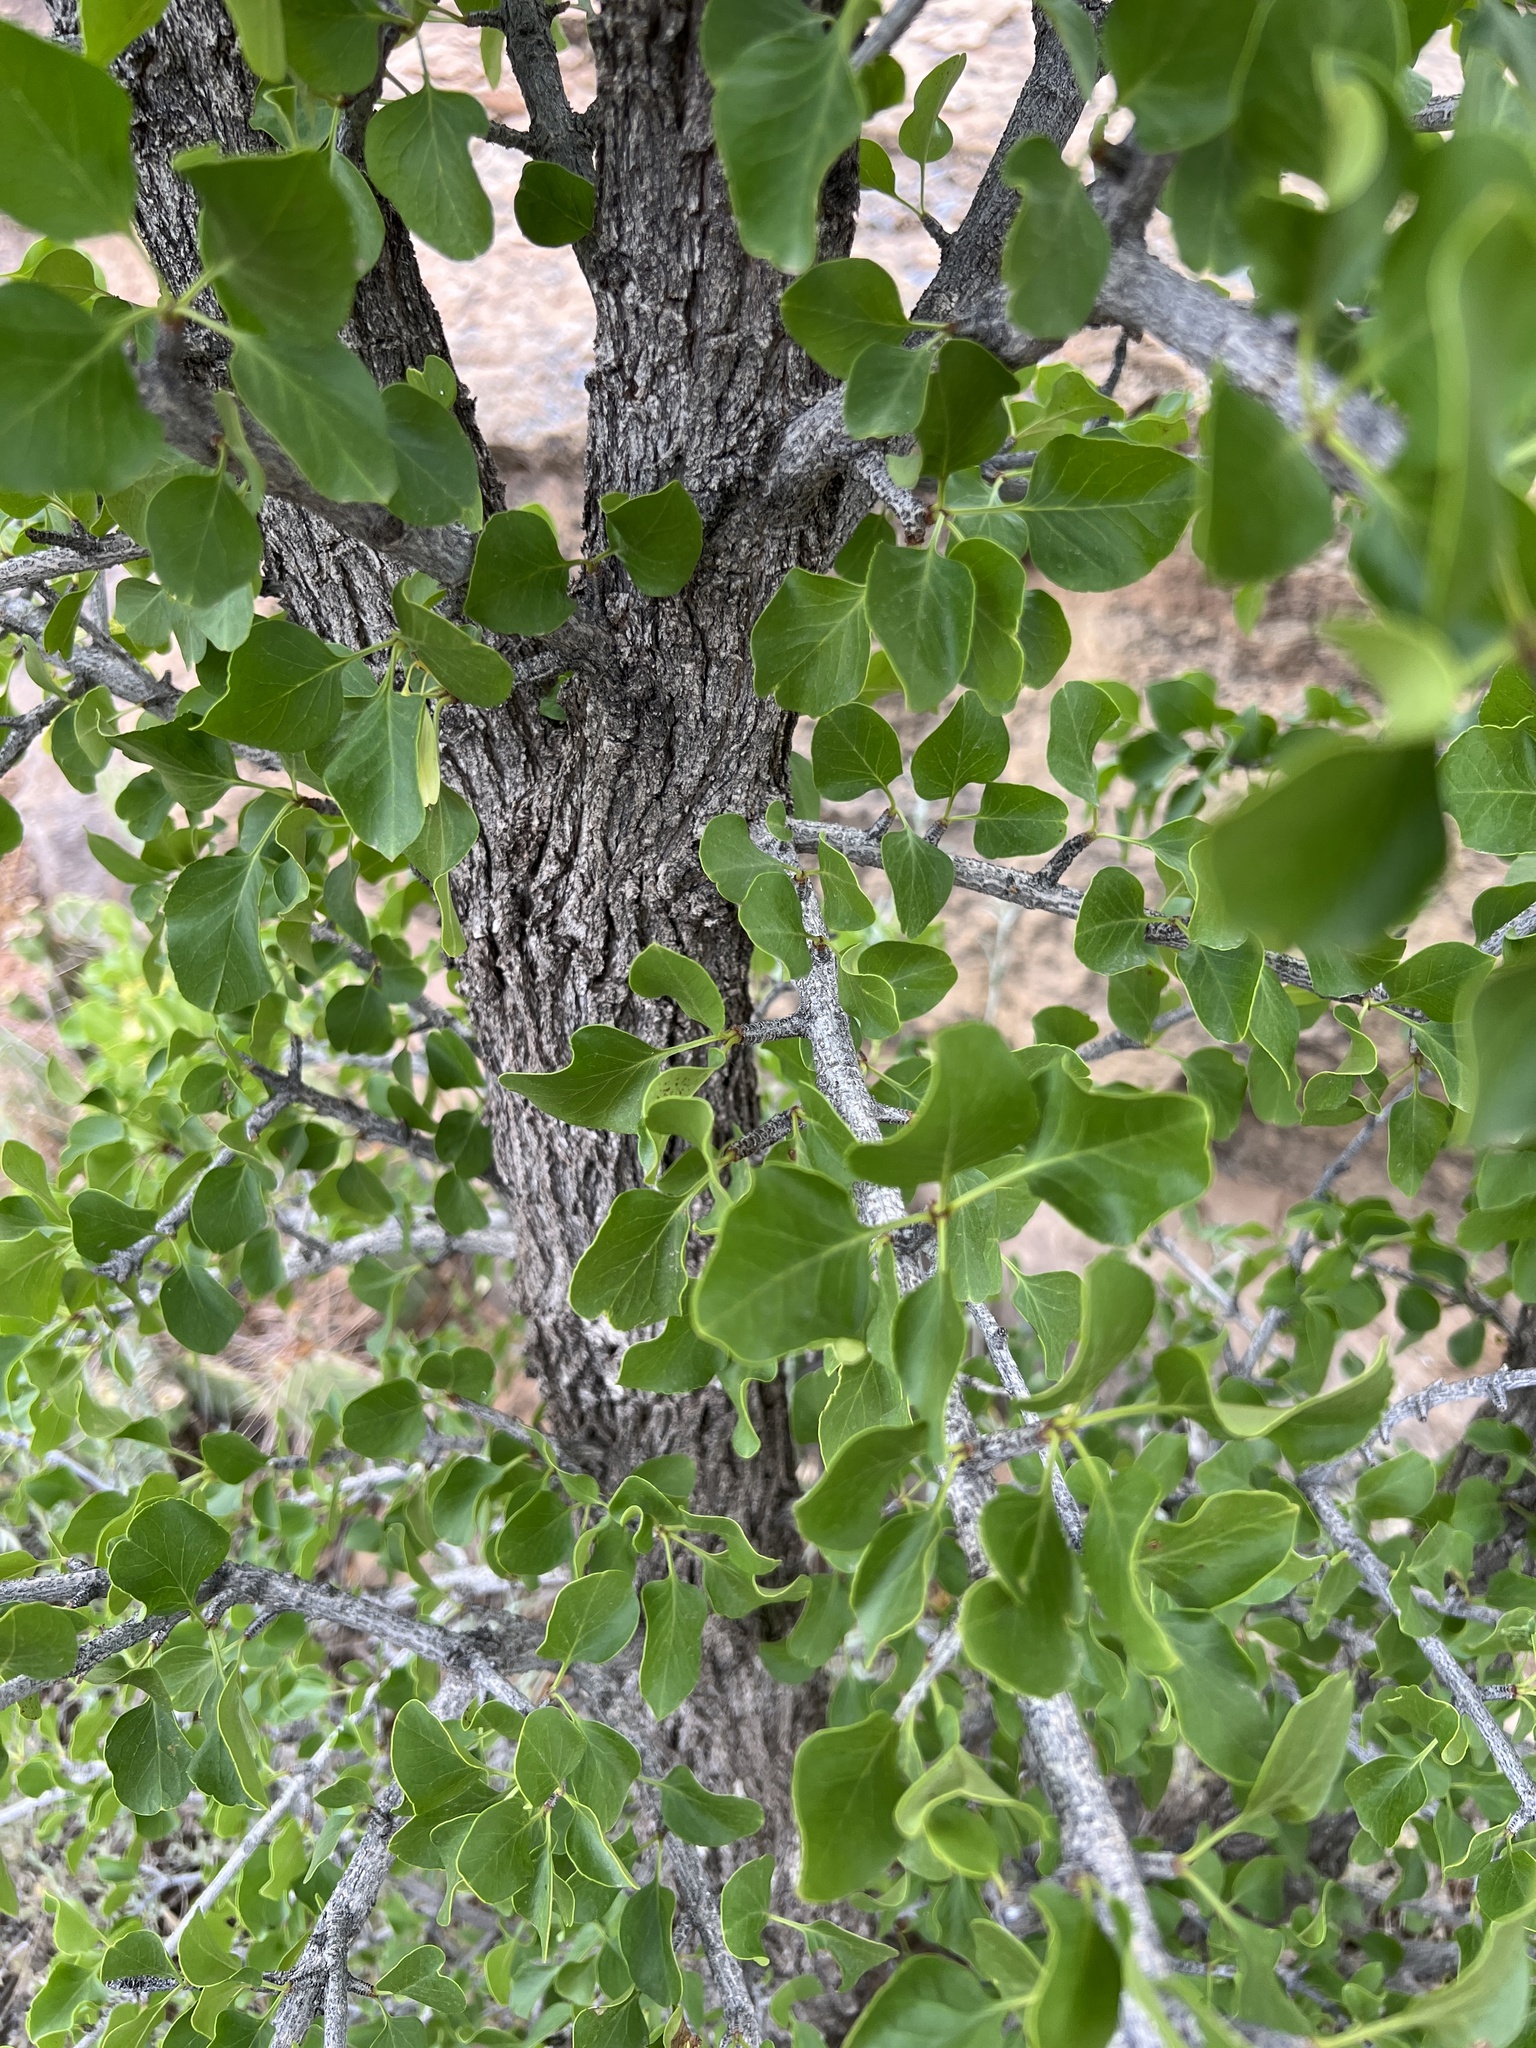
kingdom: Plantae
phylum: Tracheophyta
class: Magnoliopsida
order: Lamiales
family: Oleaceae
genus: Fraxinus
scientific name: Fraxinus anomala
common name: Utah ash
